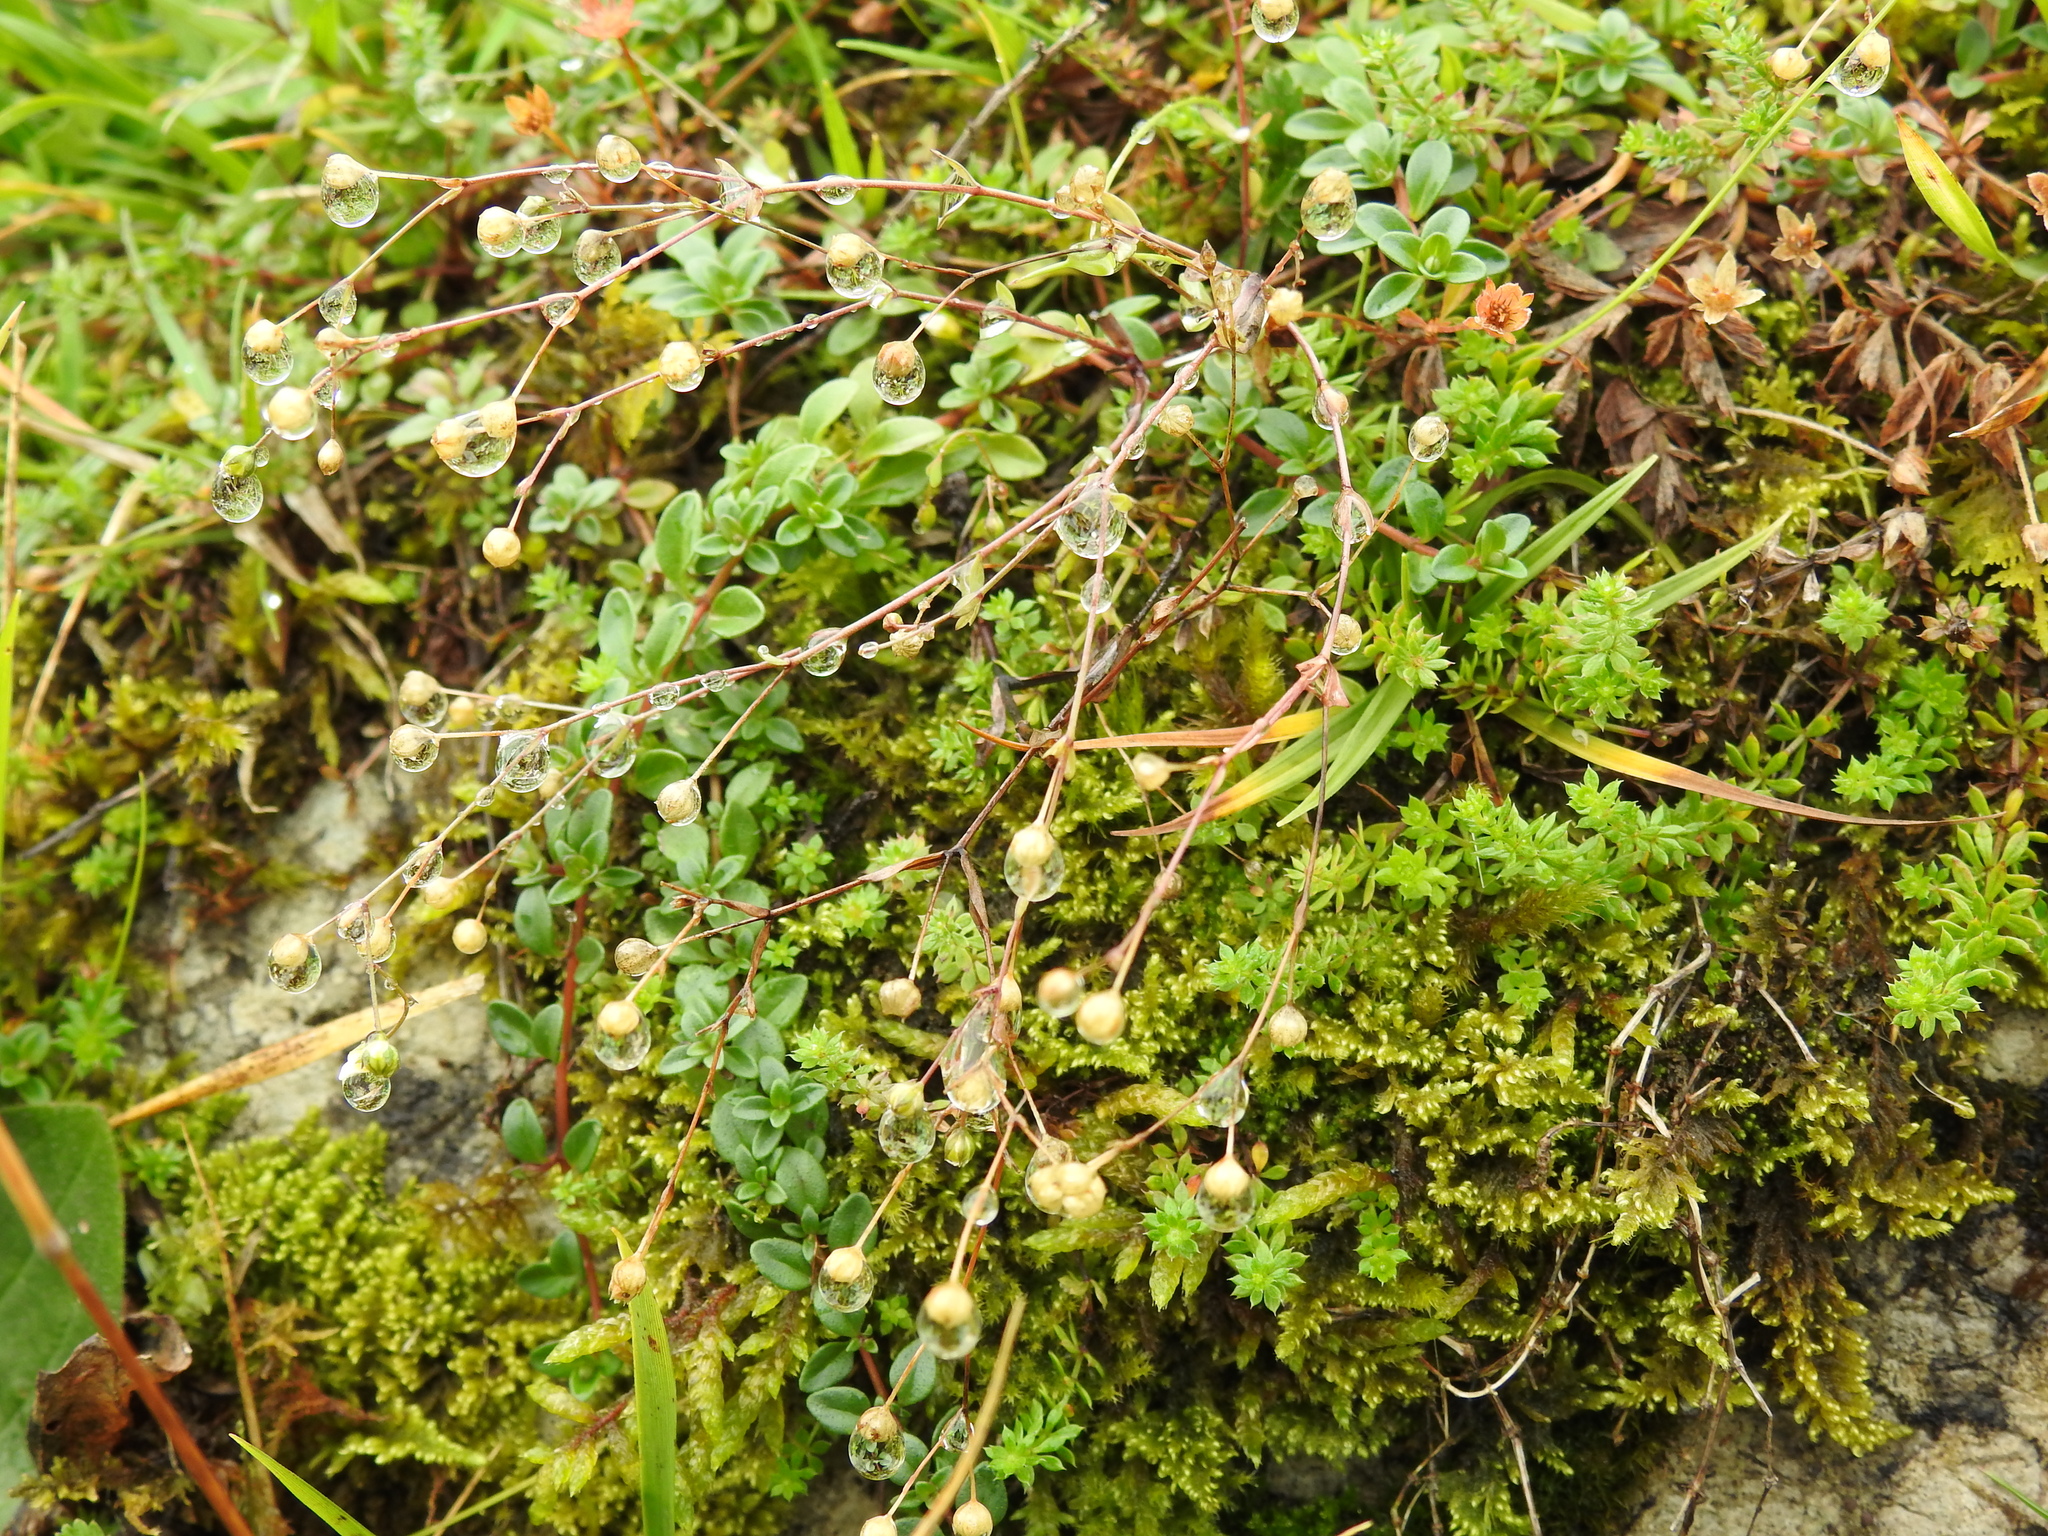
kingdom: Plantae
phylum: Tracheophyta
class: Magnoliopsida
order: Malpighiales
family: Linaceae
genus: Linum
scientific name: Linum catharticum
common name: Fairy flax
